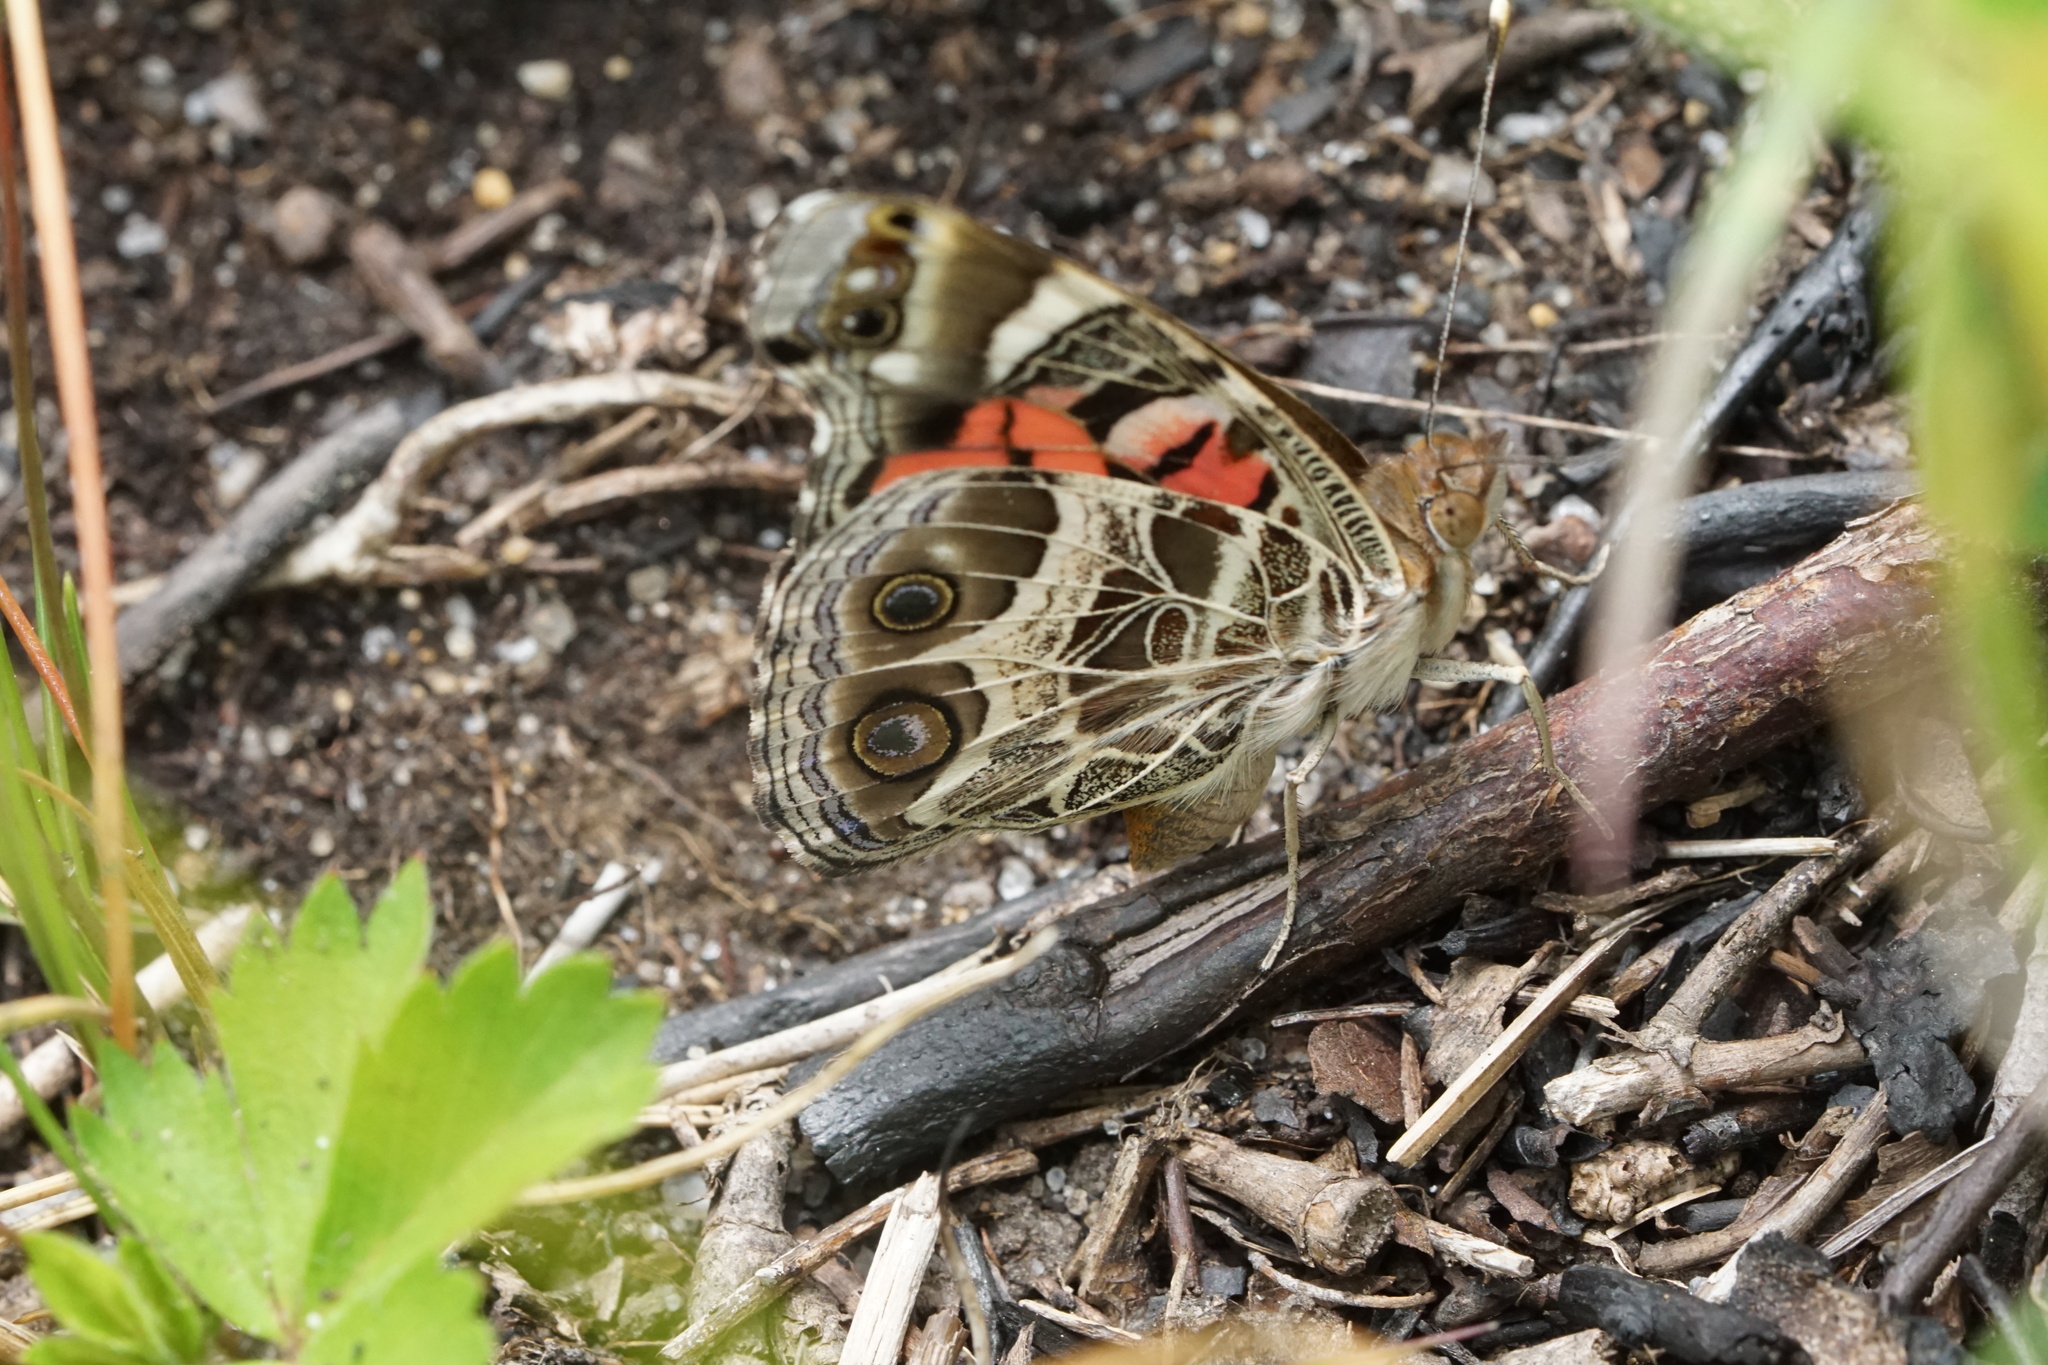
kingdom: Animalia
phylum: Arthropoda
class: Insecta
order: Lepidoptera
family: Nymphalidae
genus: Vanessa
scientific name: Vanessa virginiensis
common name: American lady
